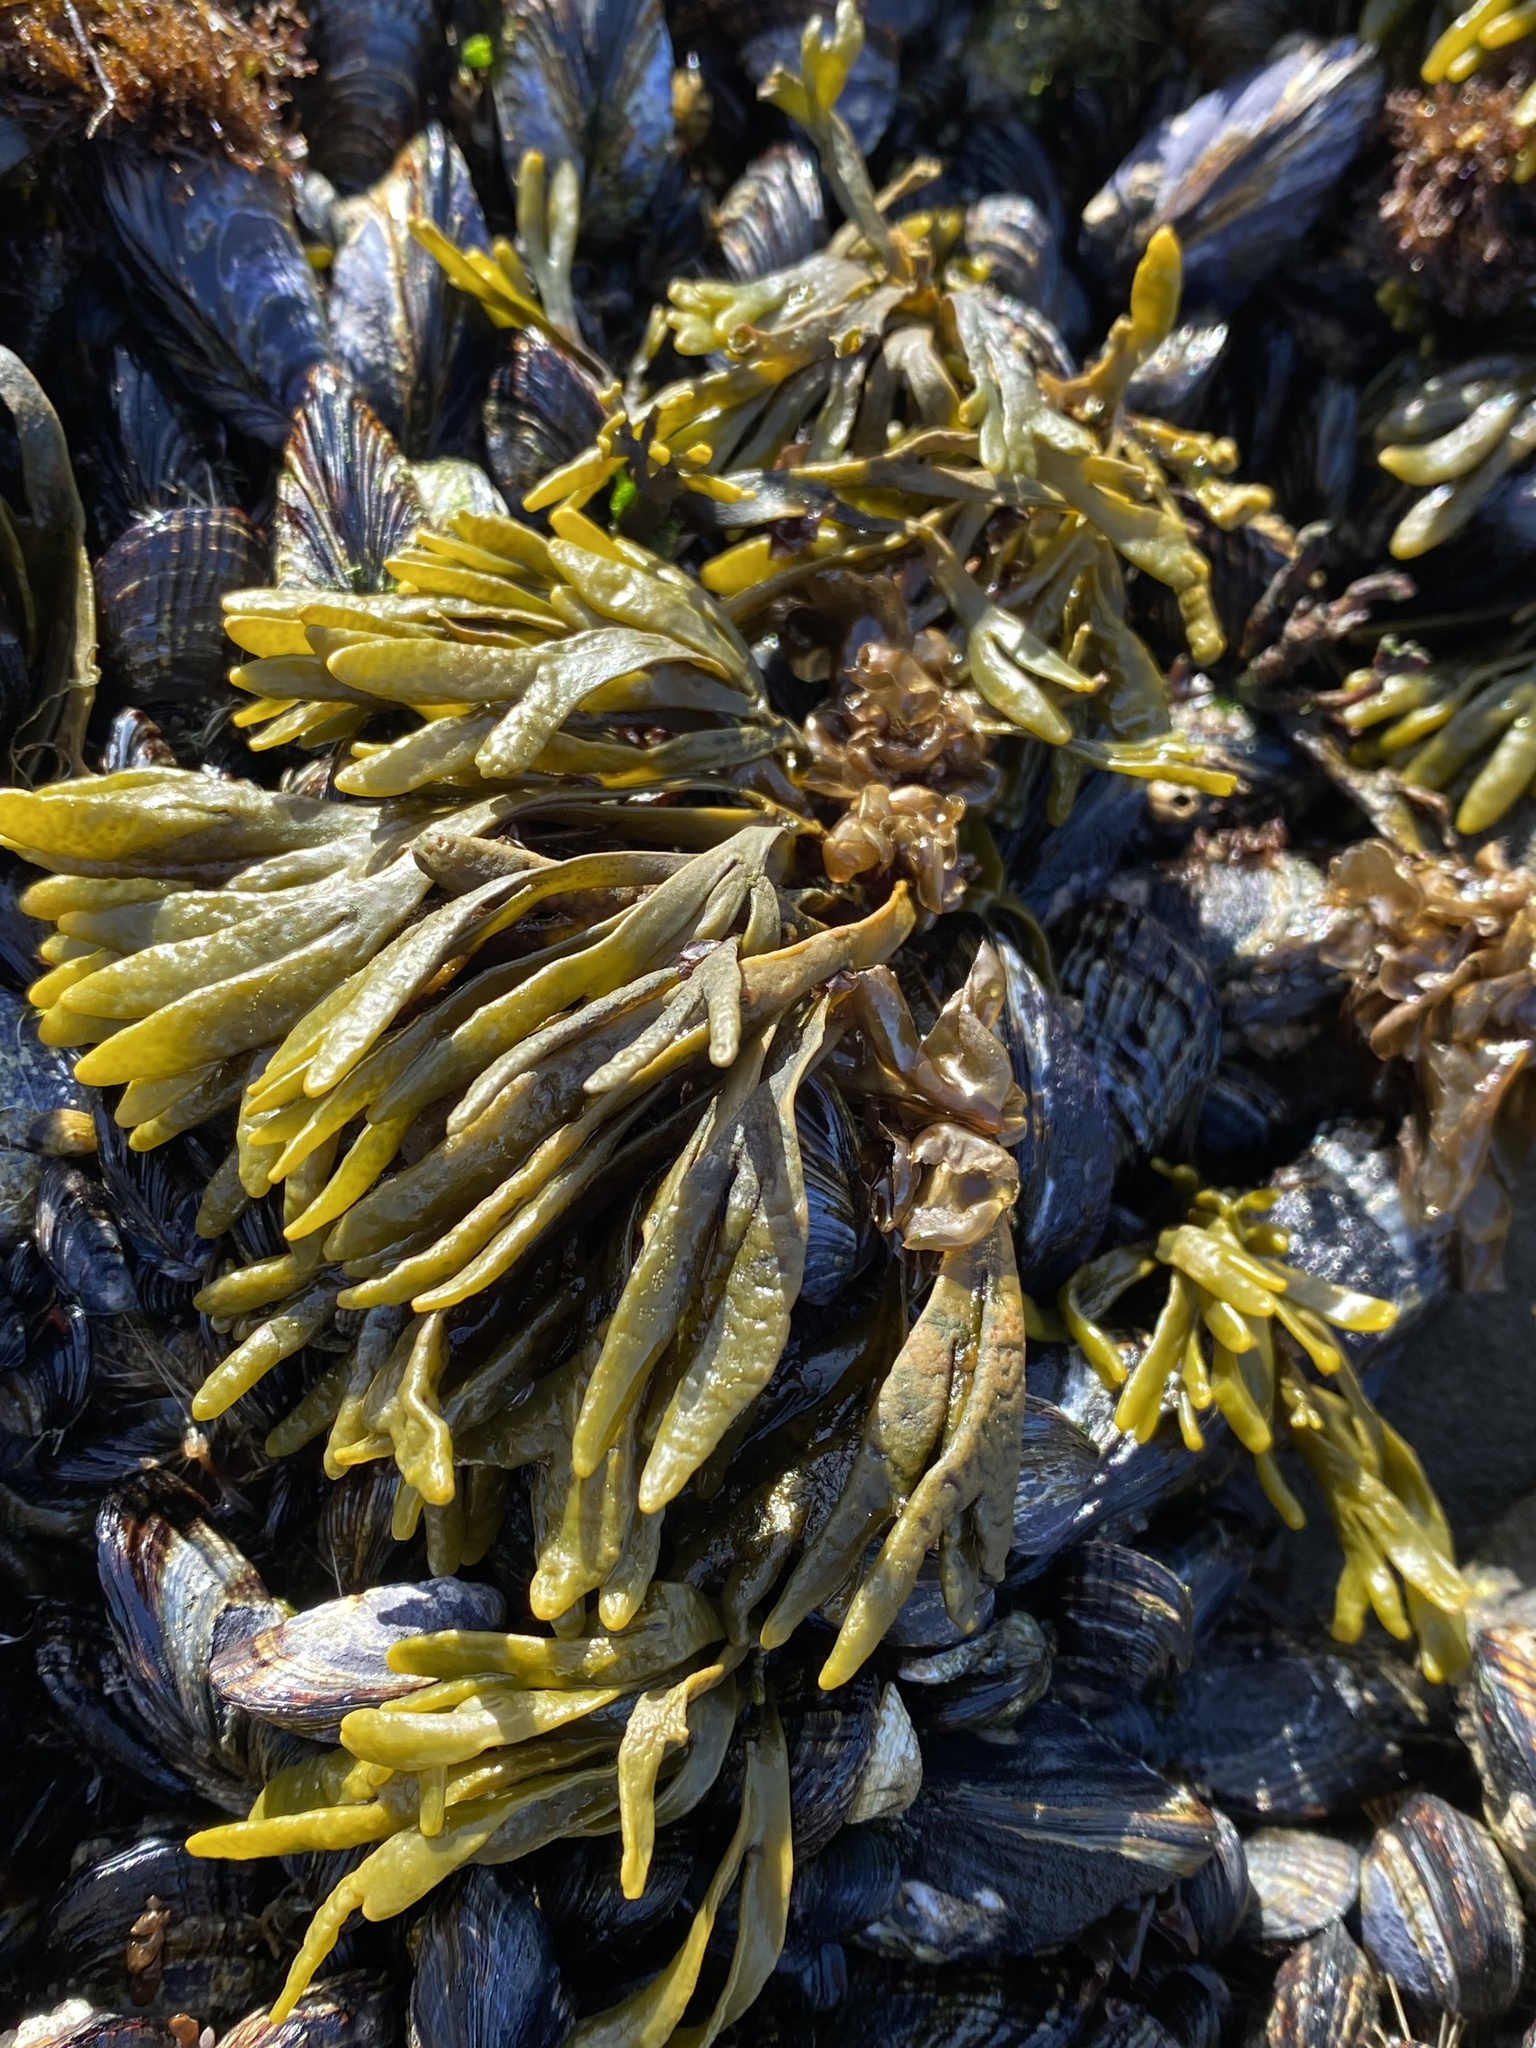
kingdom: Chromista
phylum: Ochrophyta
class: Phaeophyceae
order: Fucales
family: Fucaceae
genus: Pelvetiopsis
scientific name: Pelvetiopsis limitata
